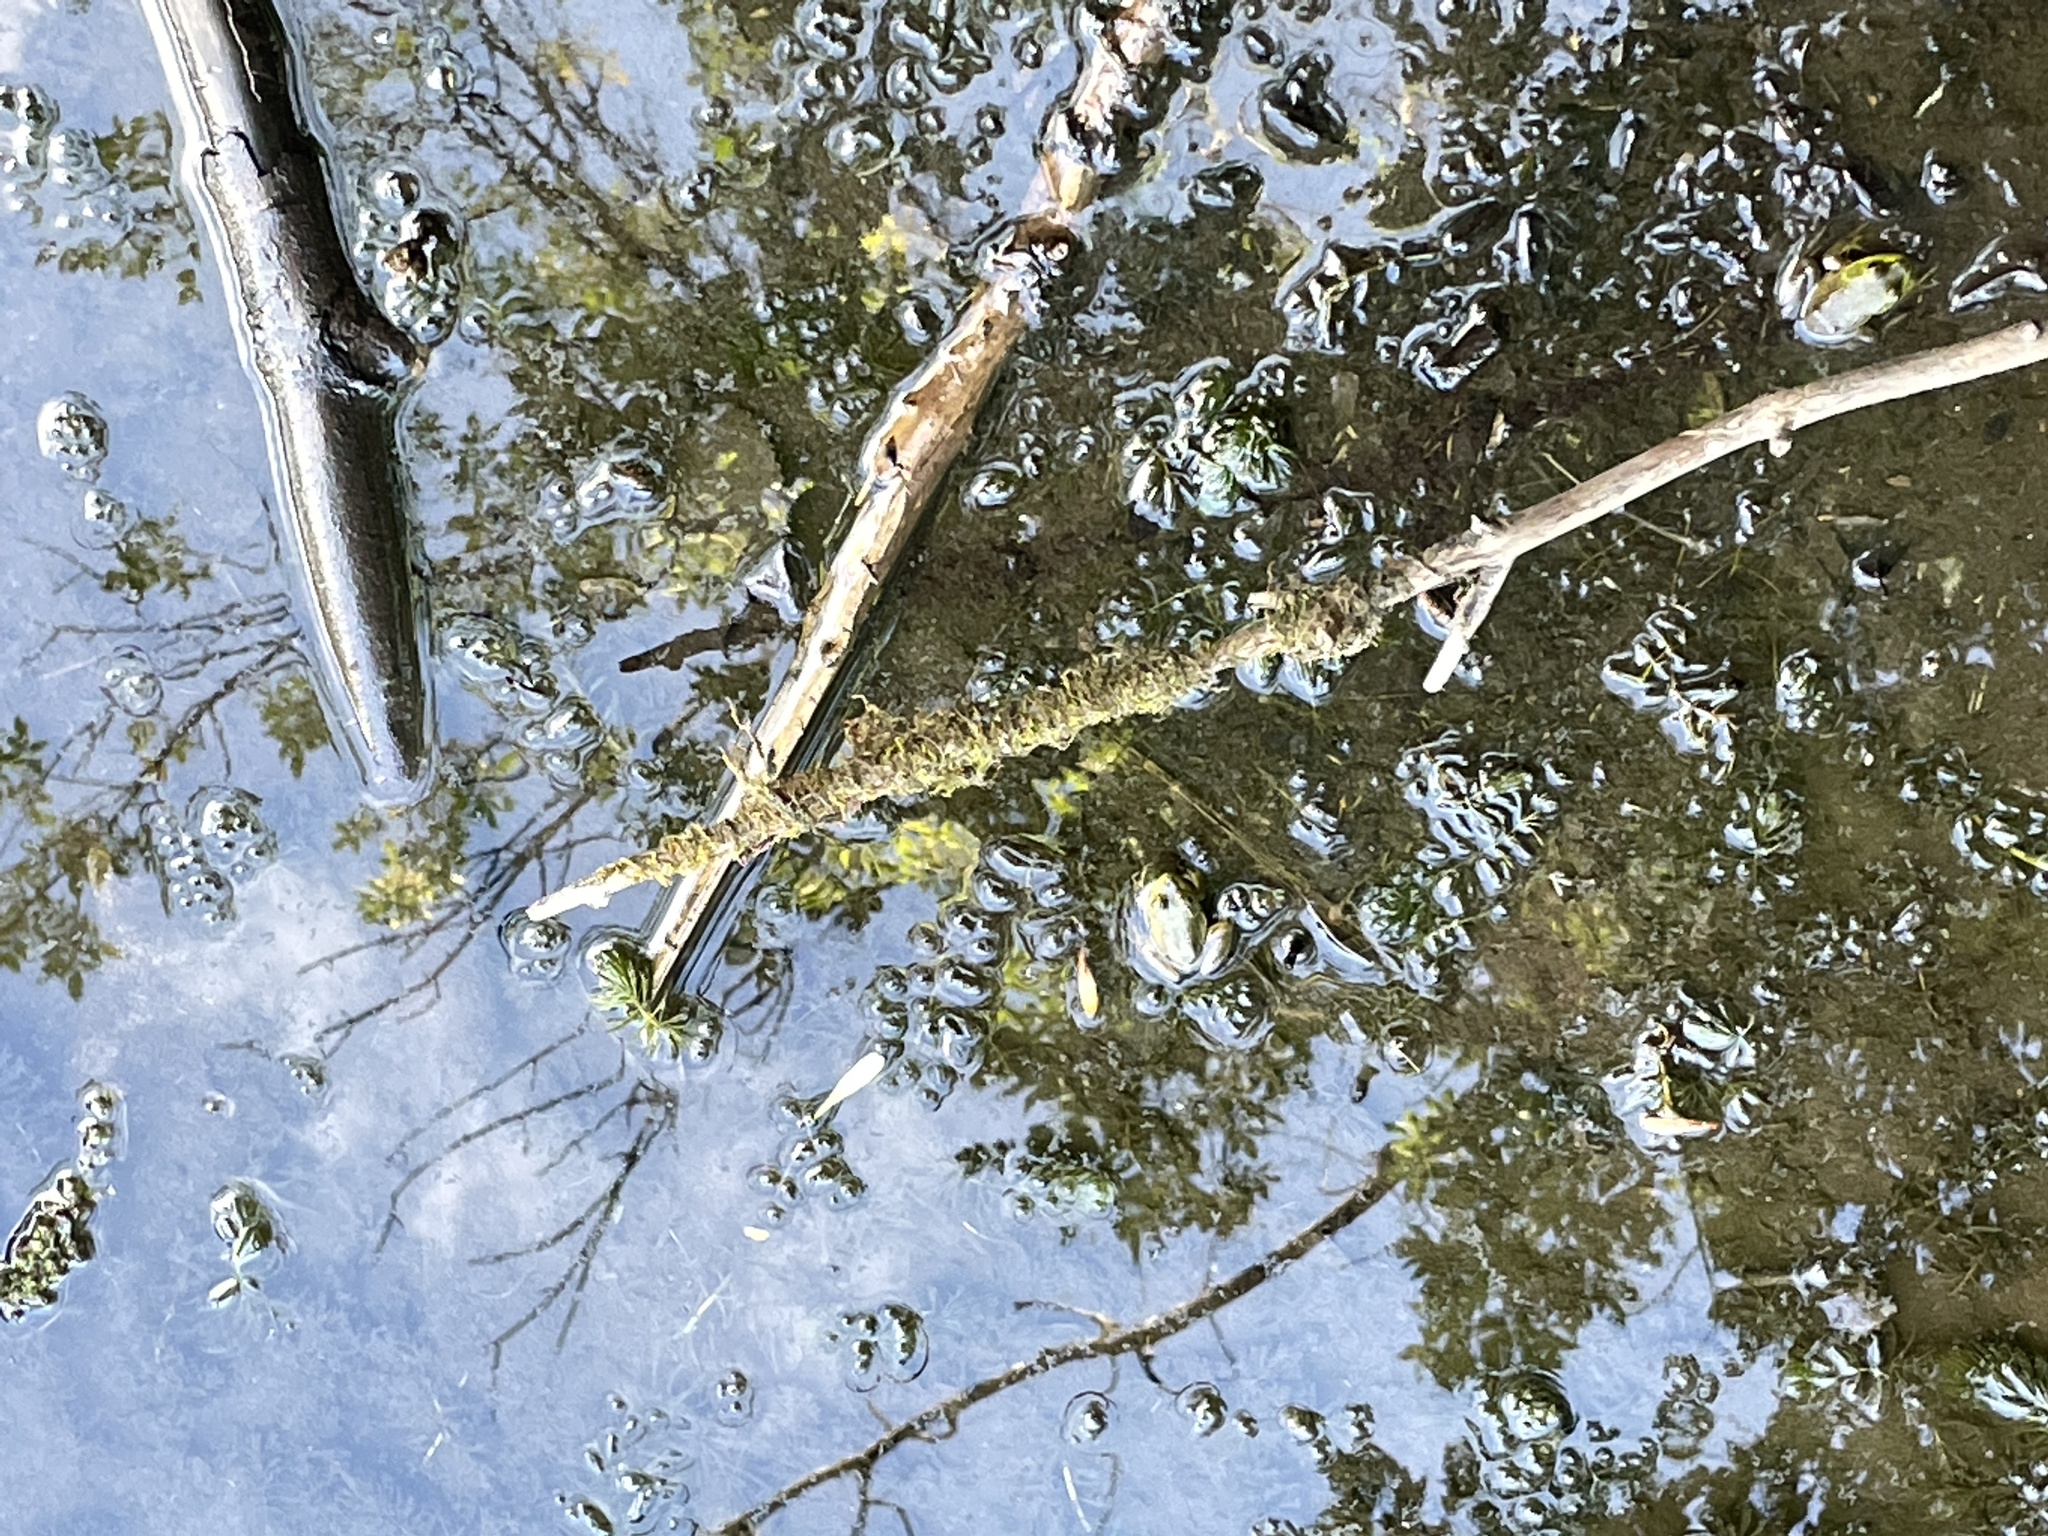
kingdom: Animalia
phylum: Chordata
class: Amphibia
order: Anura
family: Ranidae
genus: Lithobates
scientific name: Lithobates catesbeianus
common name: American bullfrog
